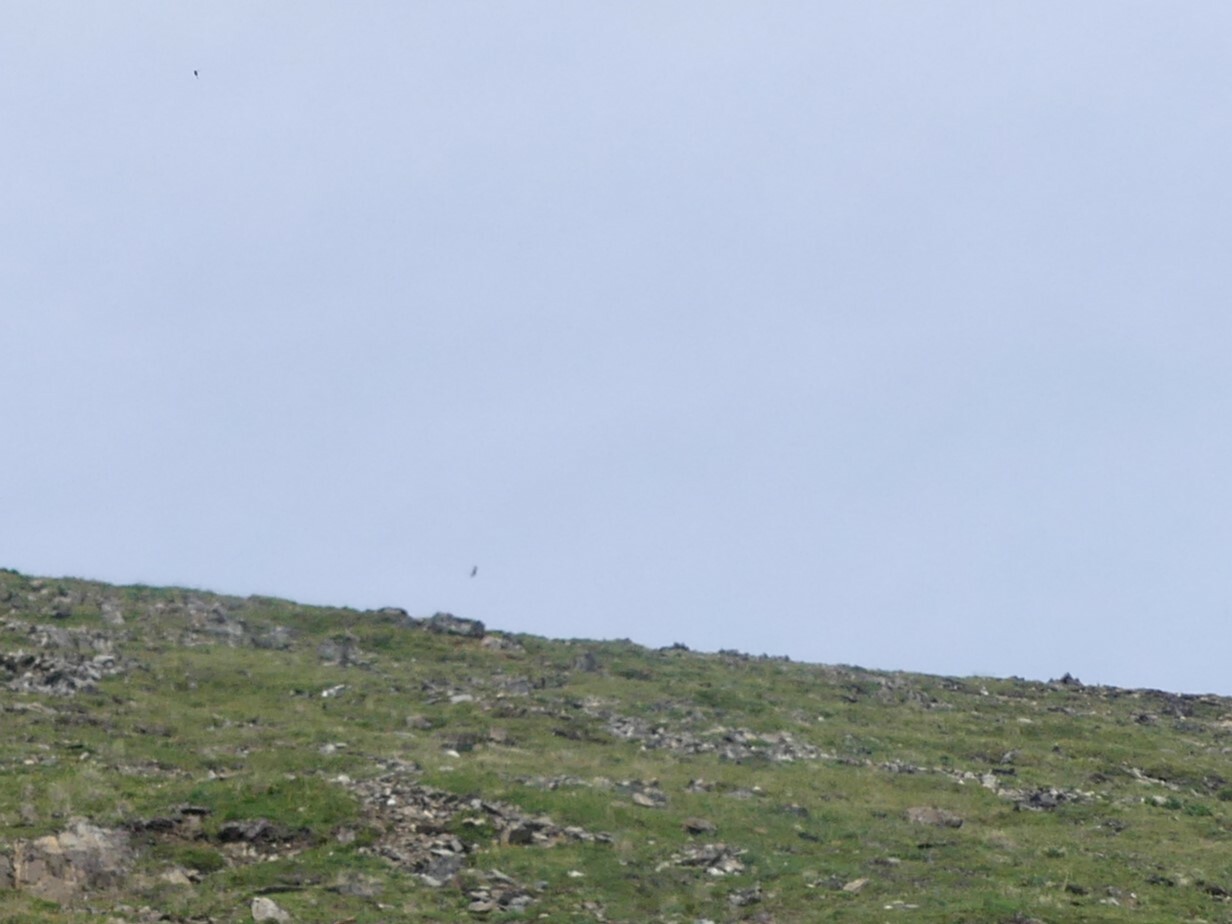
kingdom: Animalia
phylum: Chordata
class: Aves
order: Accipitriformes
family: Accipitridae
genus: Circus
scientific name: Circus cyaneus
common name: Hen harrier
